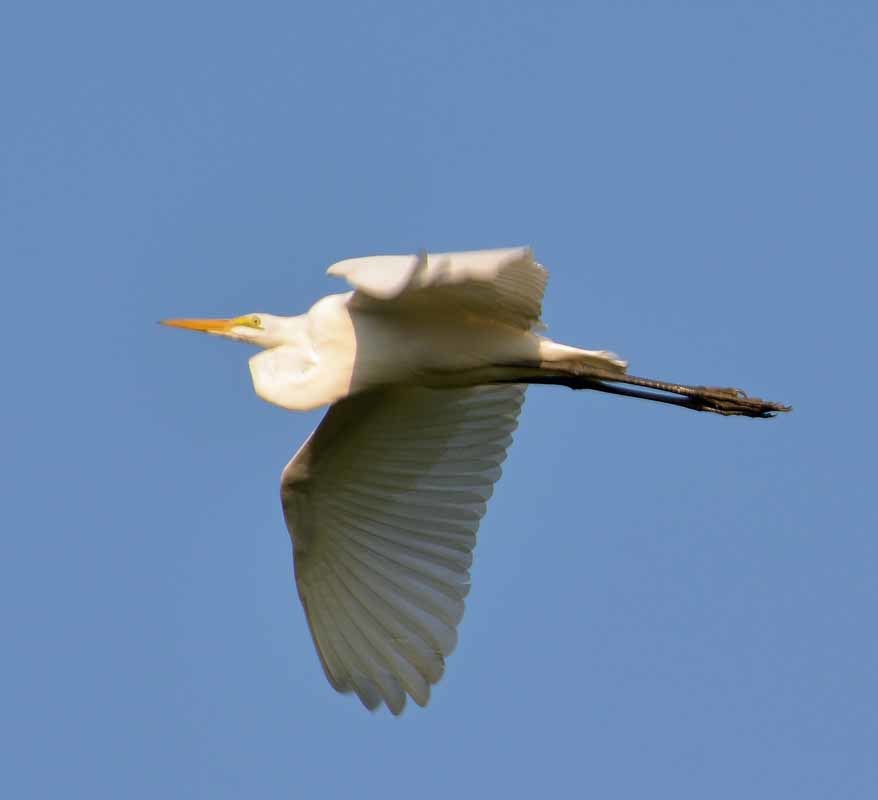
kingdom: Animalia
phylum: Chordata
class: Aves
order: Pelecaniformes
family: Ardeidae
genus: Ardea
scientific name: Ardea alba
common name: Great egret
